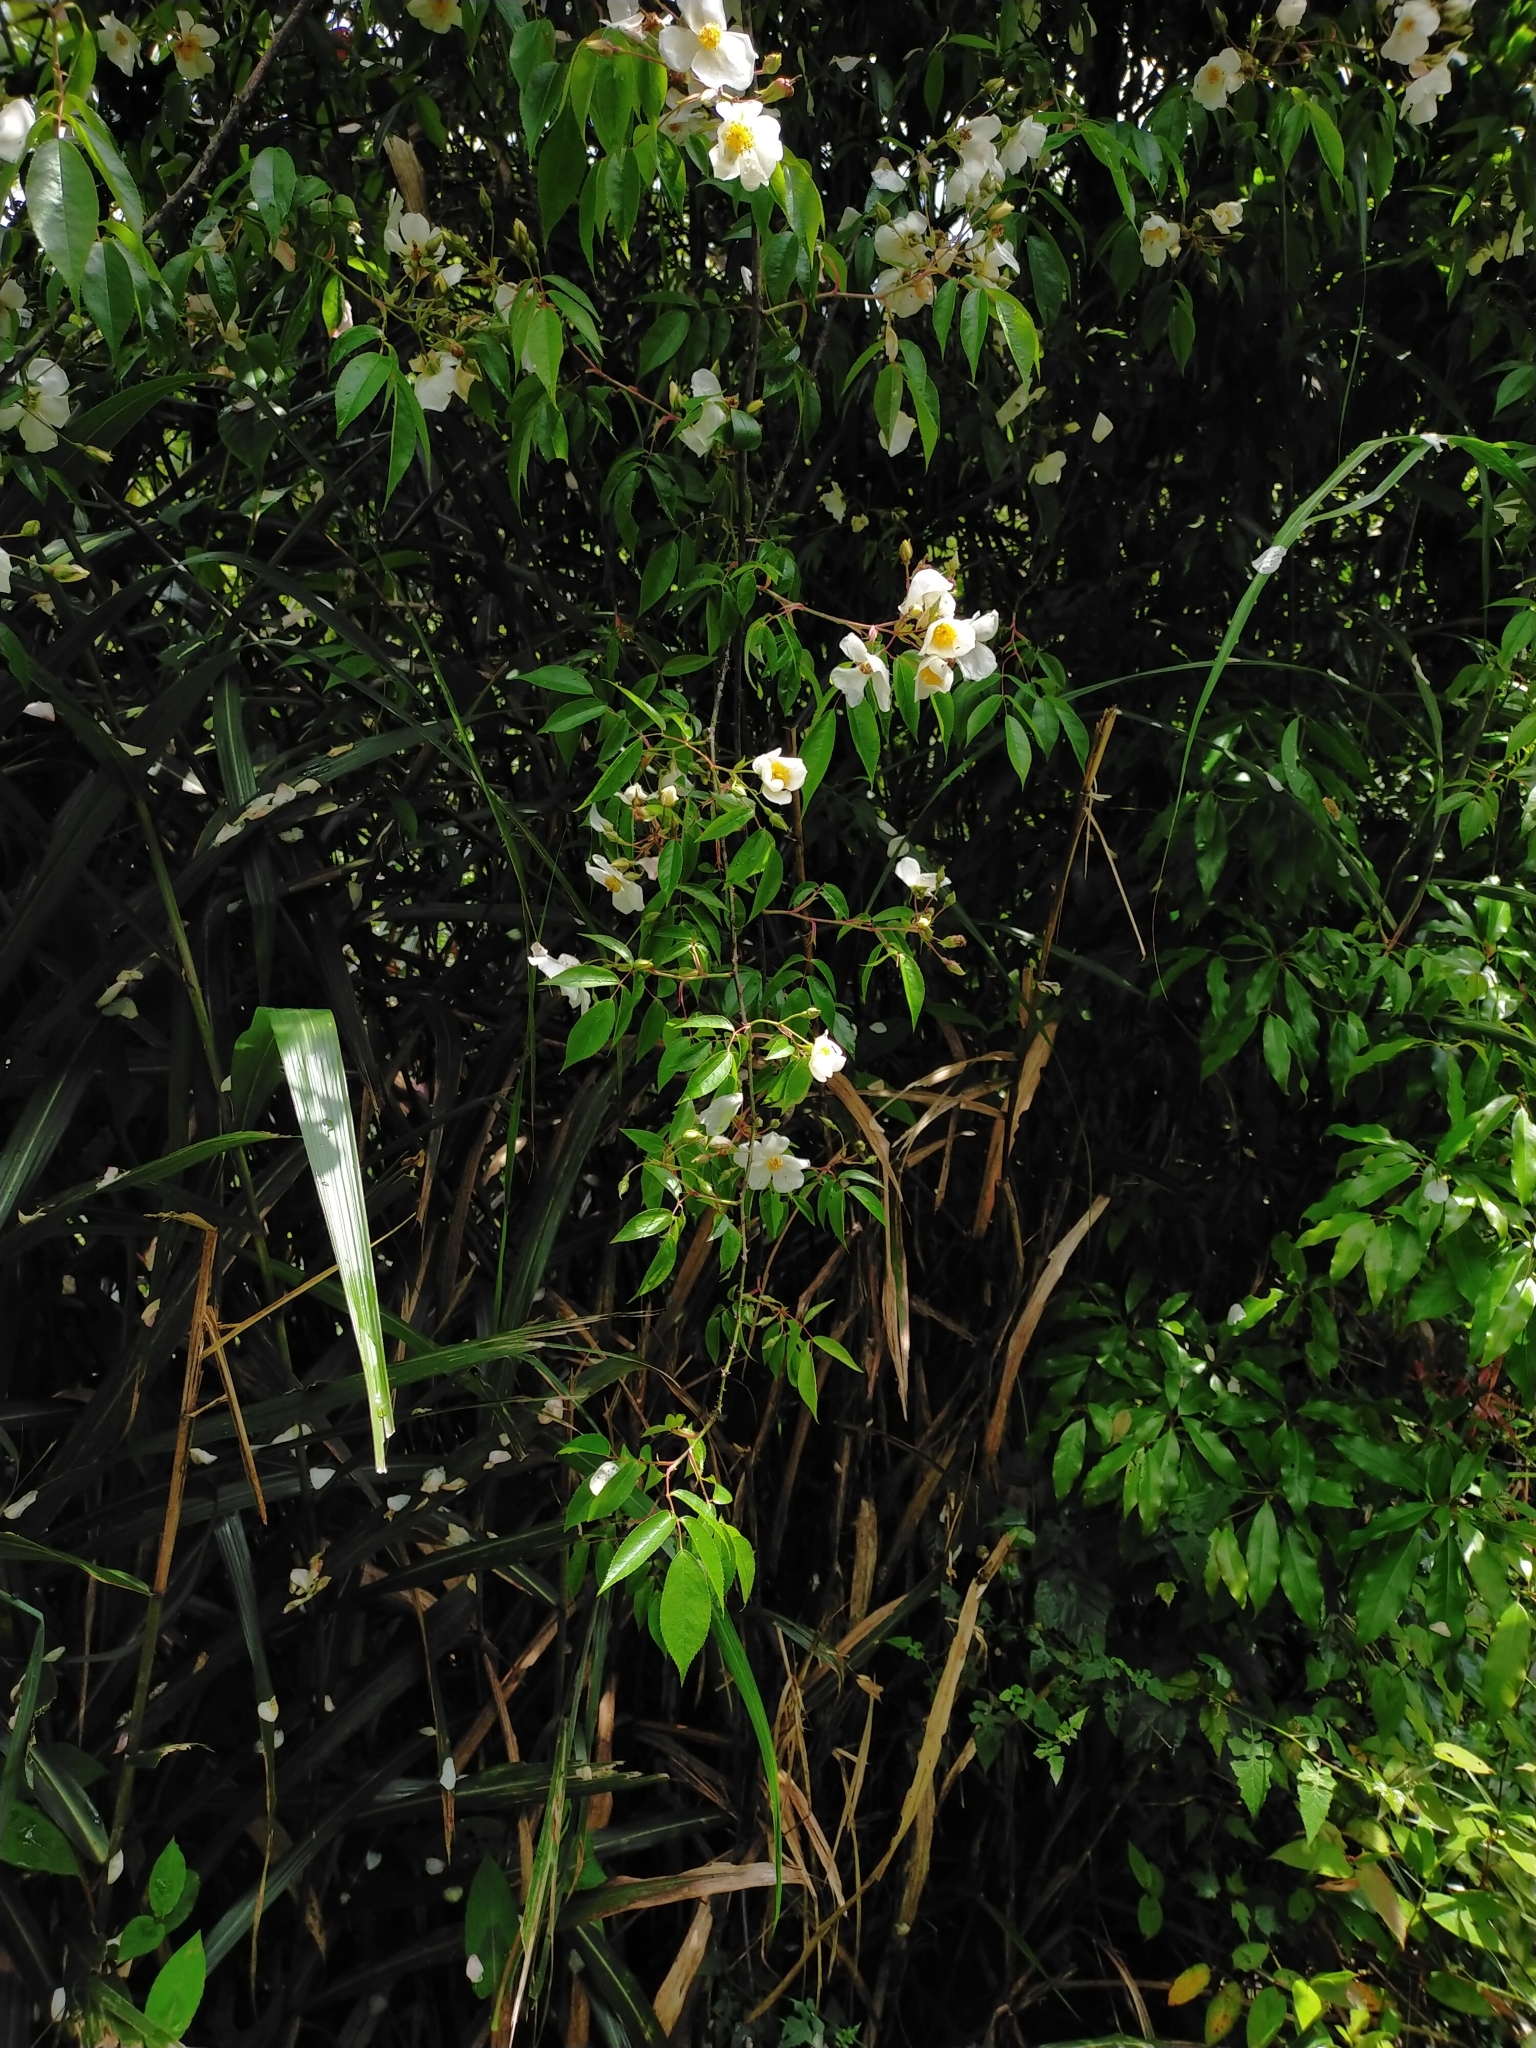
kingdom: Plantae
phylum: Tracheophyta
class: Magnoliopsida
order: Rosales
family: Rosaceae
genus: Rosa
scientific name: Rosa transmorrisonensis
